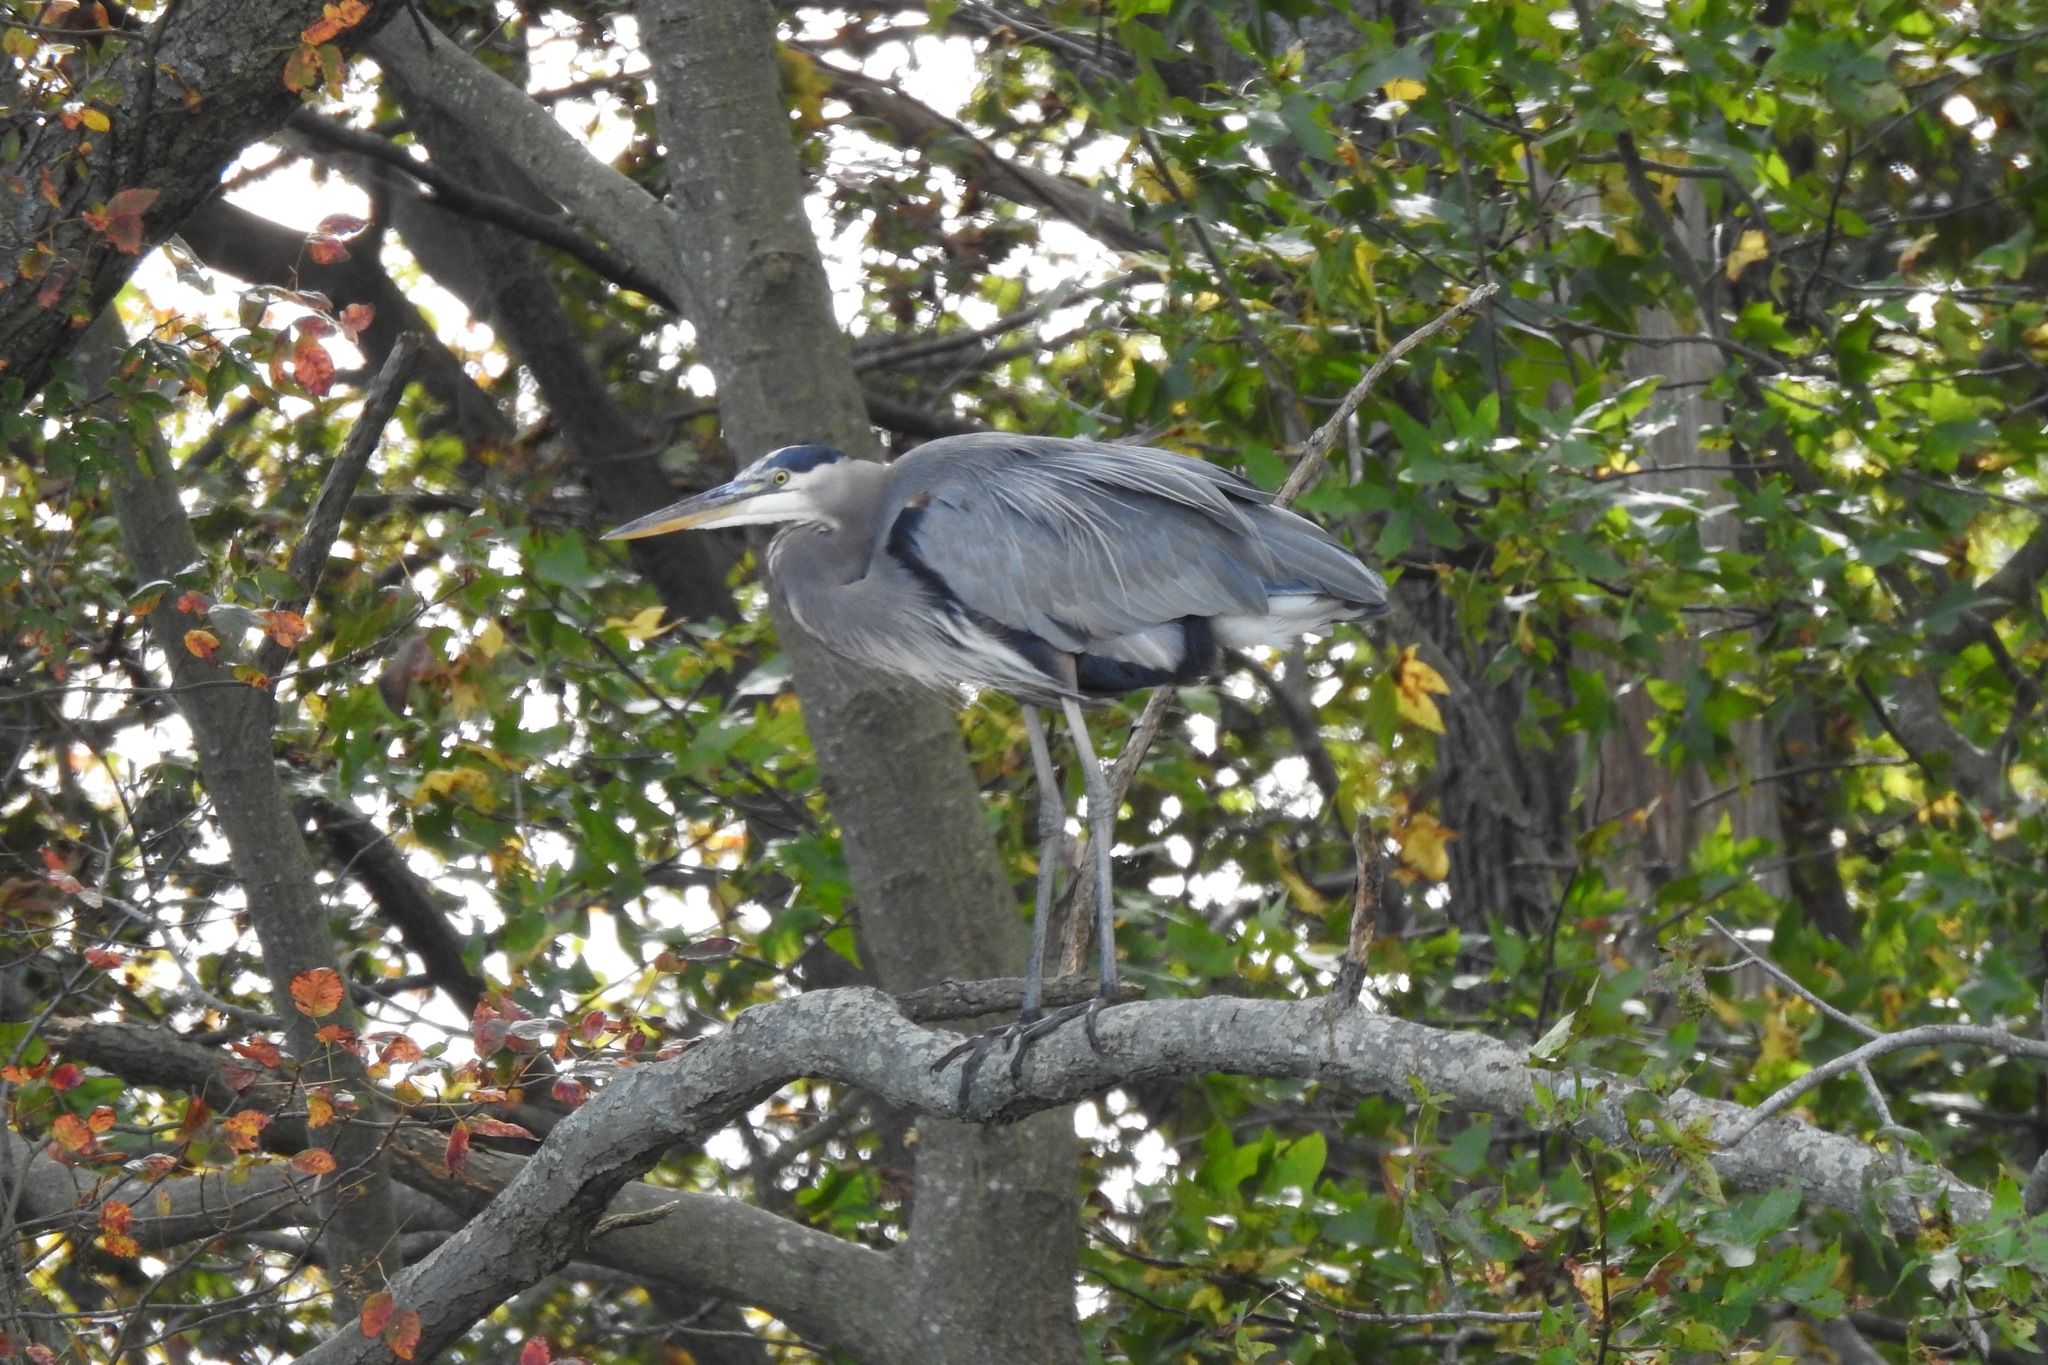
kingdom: Animalia
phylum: Chordata
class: Aves
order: Pelecaniformes
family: Ardeidae
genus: Ardea
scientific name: Ardea herodias
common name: Great blue heron
